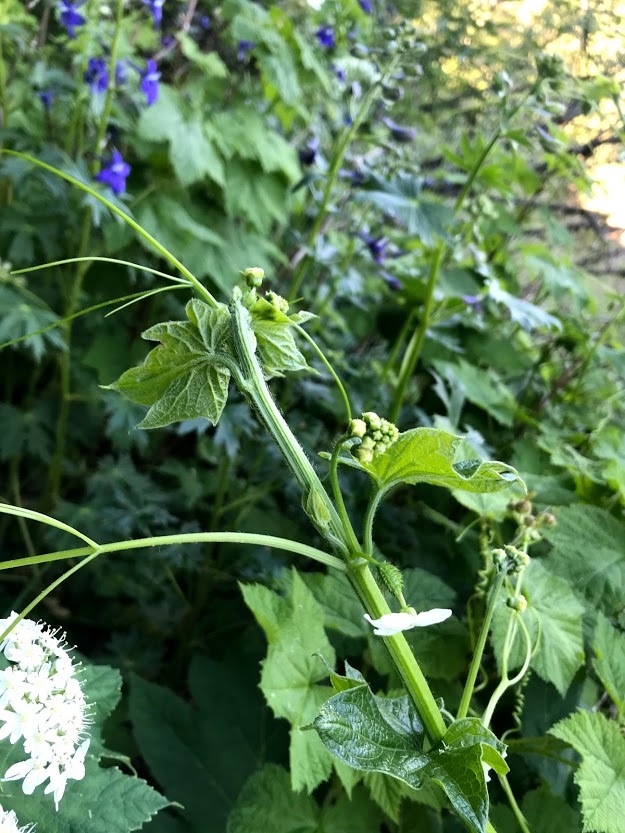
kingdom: Plantae
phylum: Tracheophyta
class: Magnoliopsida
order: Cucurbitales
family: Cucurbitaceae
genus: Marah
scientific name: Marah oregana
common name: Coastal manroot
